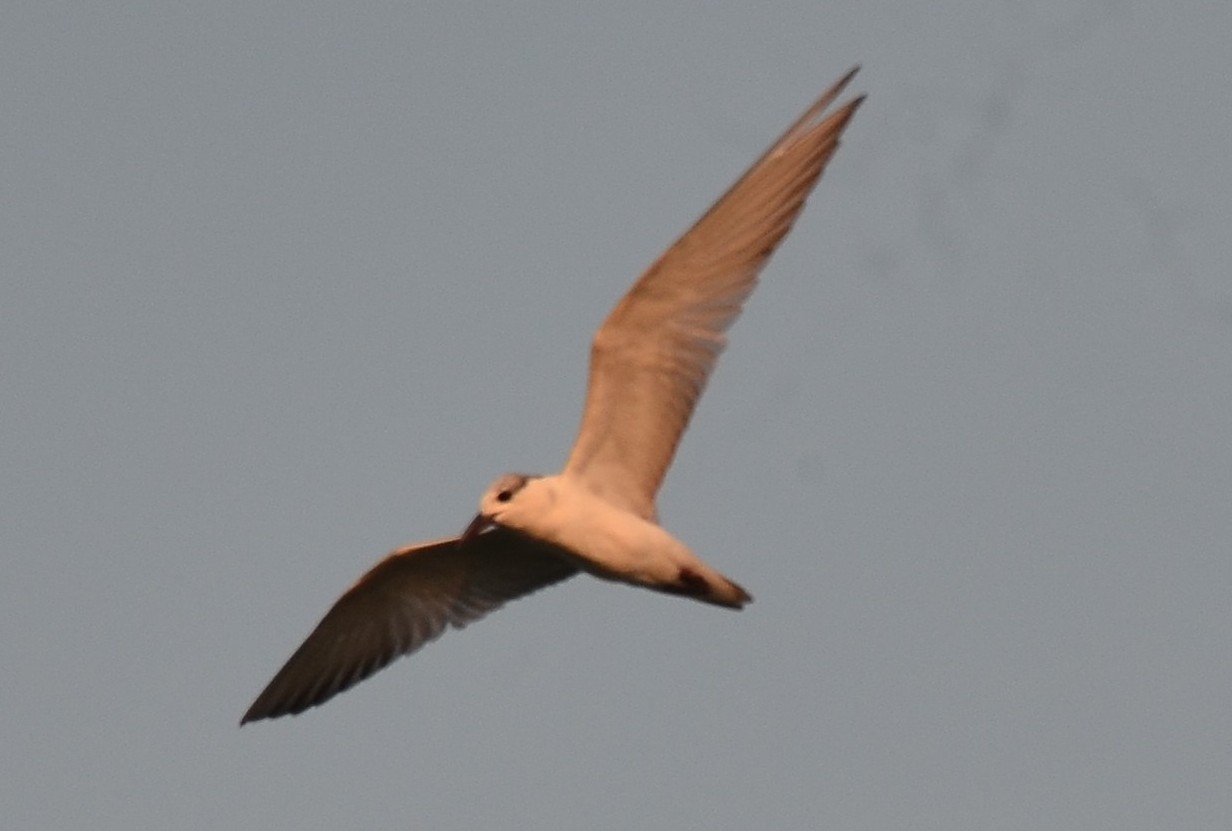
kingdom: Animalia
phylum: Chordata
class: Aves
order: Charadriiformes
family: Laridae
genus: Chlidonias
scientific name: Chlidonias hybrida
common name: Whiskered tern
